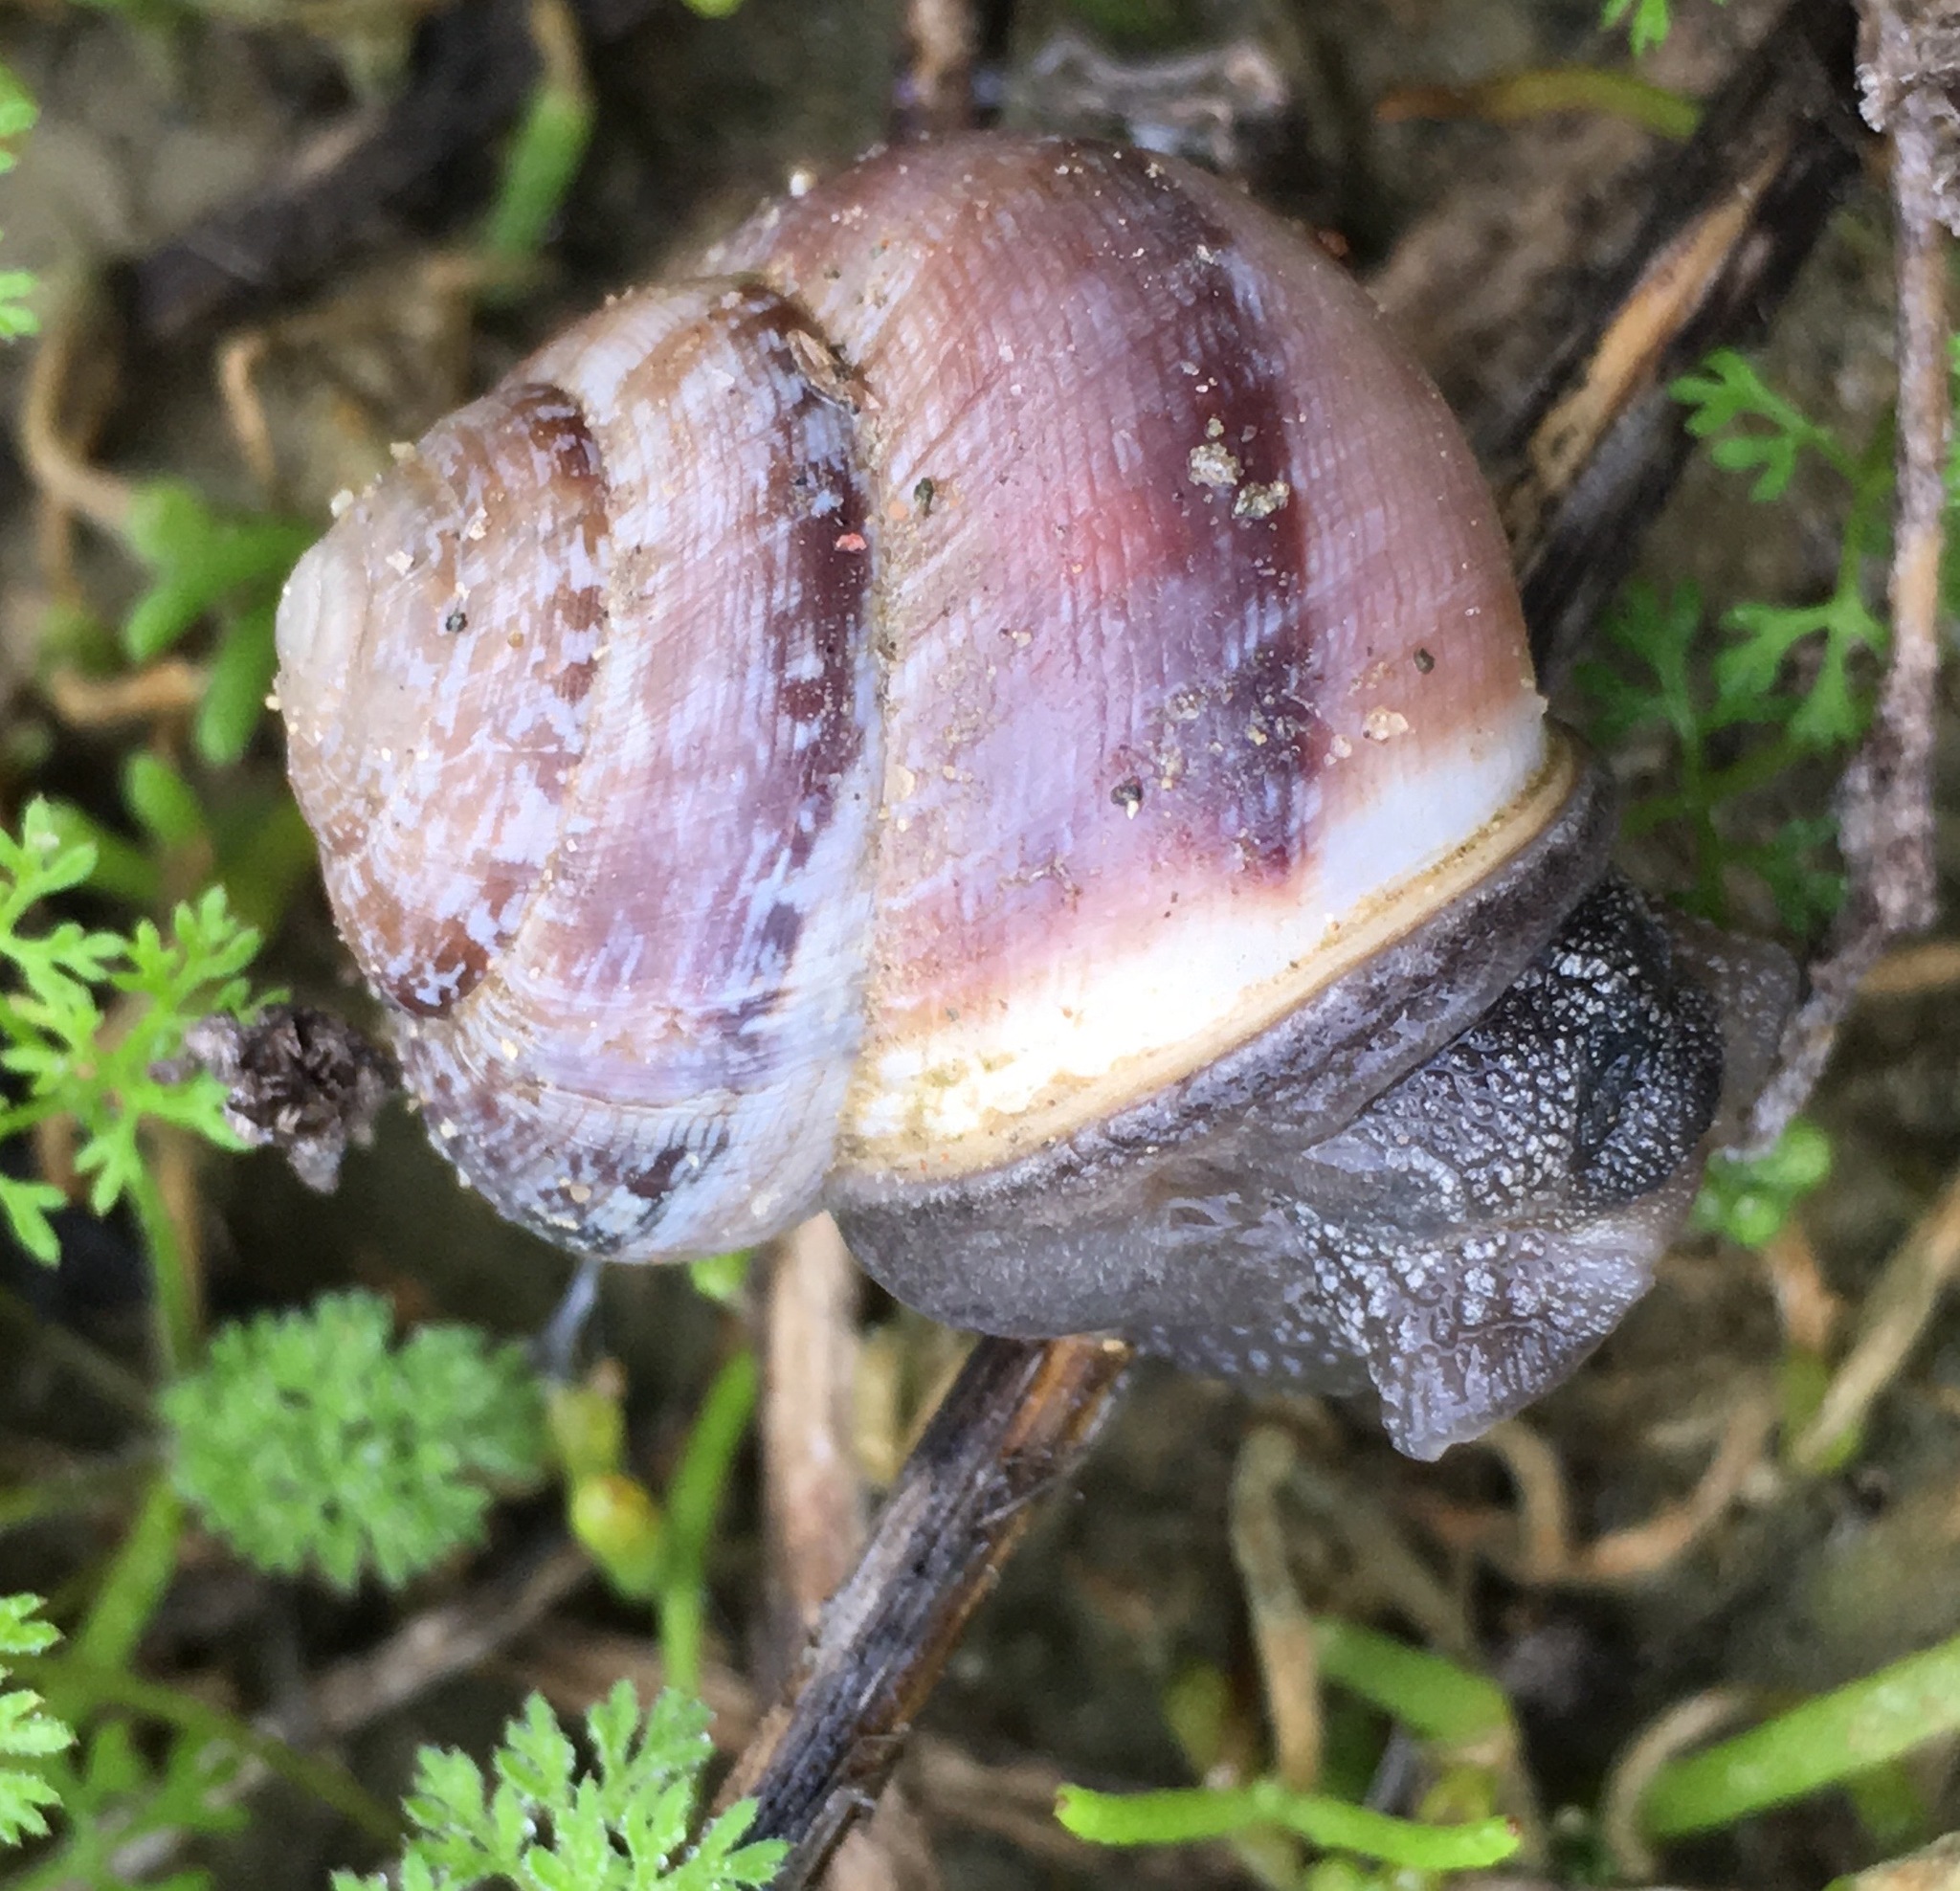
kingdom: Animalia
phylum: Mollusca
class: Gastropoda
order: Stylommatophora
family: Xanthonychidae
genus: Xerarionta
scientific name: Xerarionta tryoni
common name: Bicolor cactus snail
